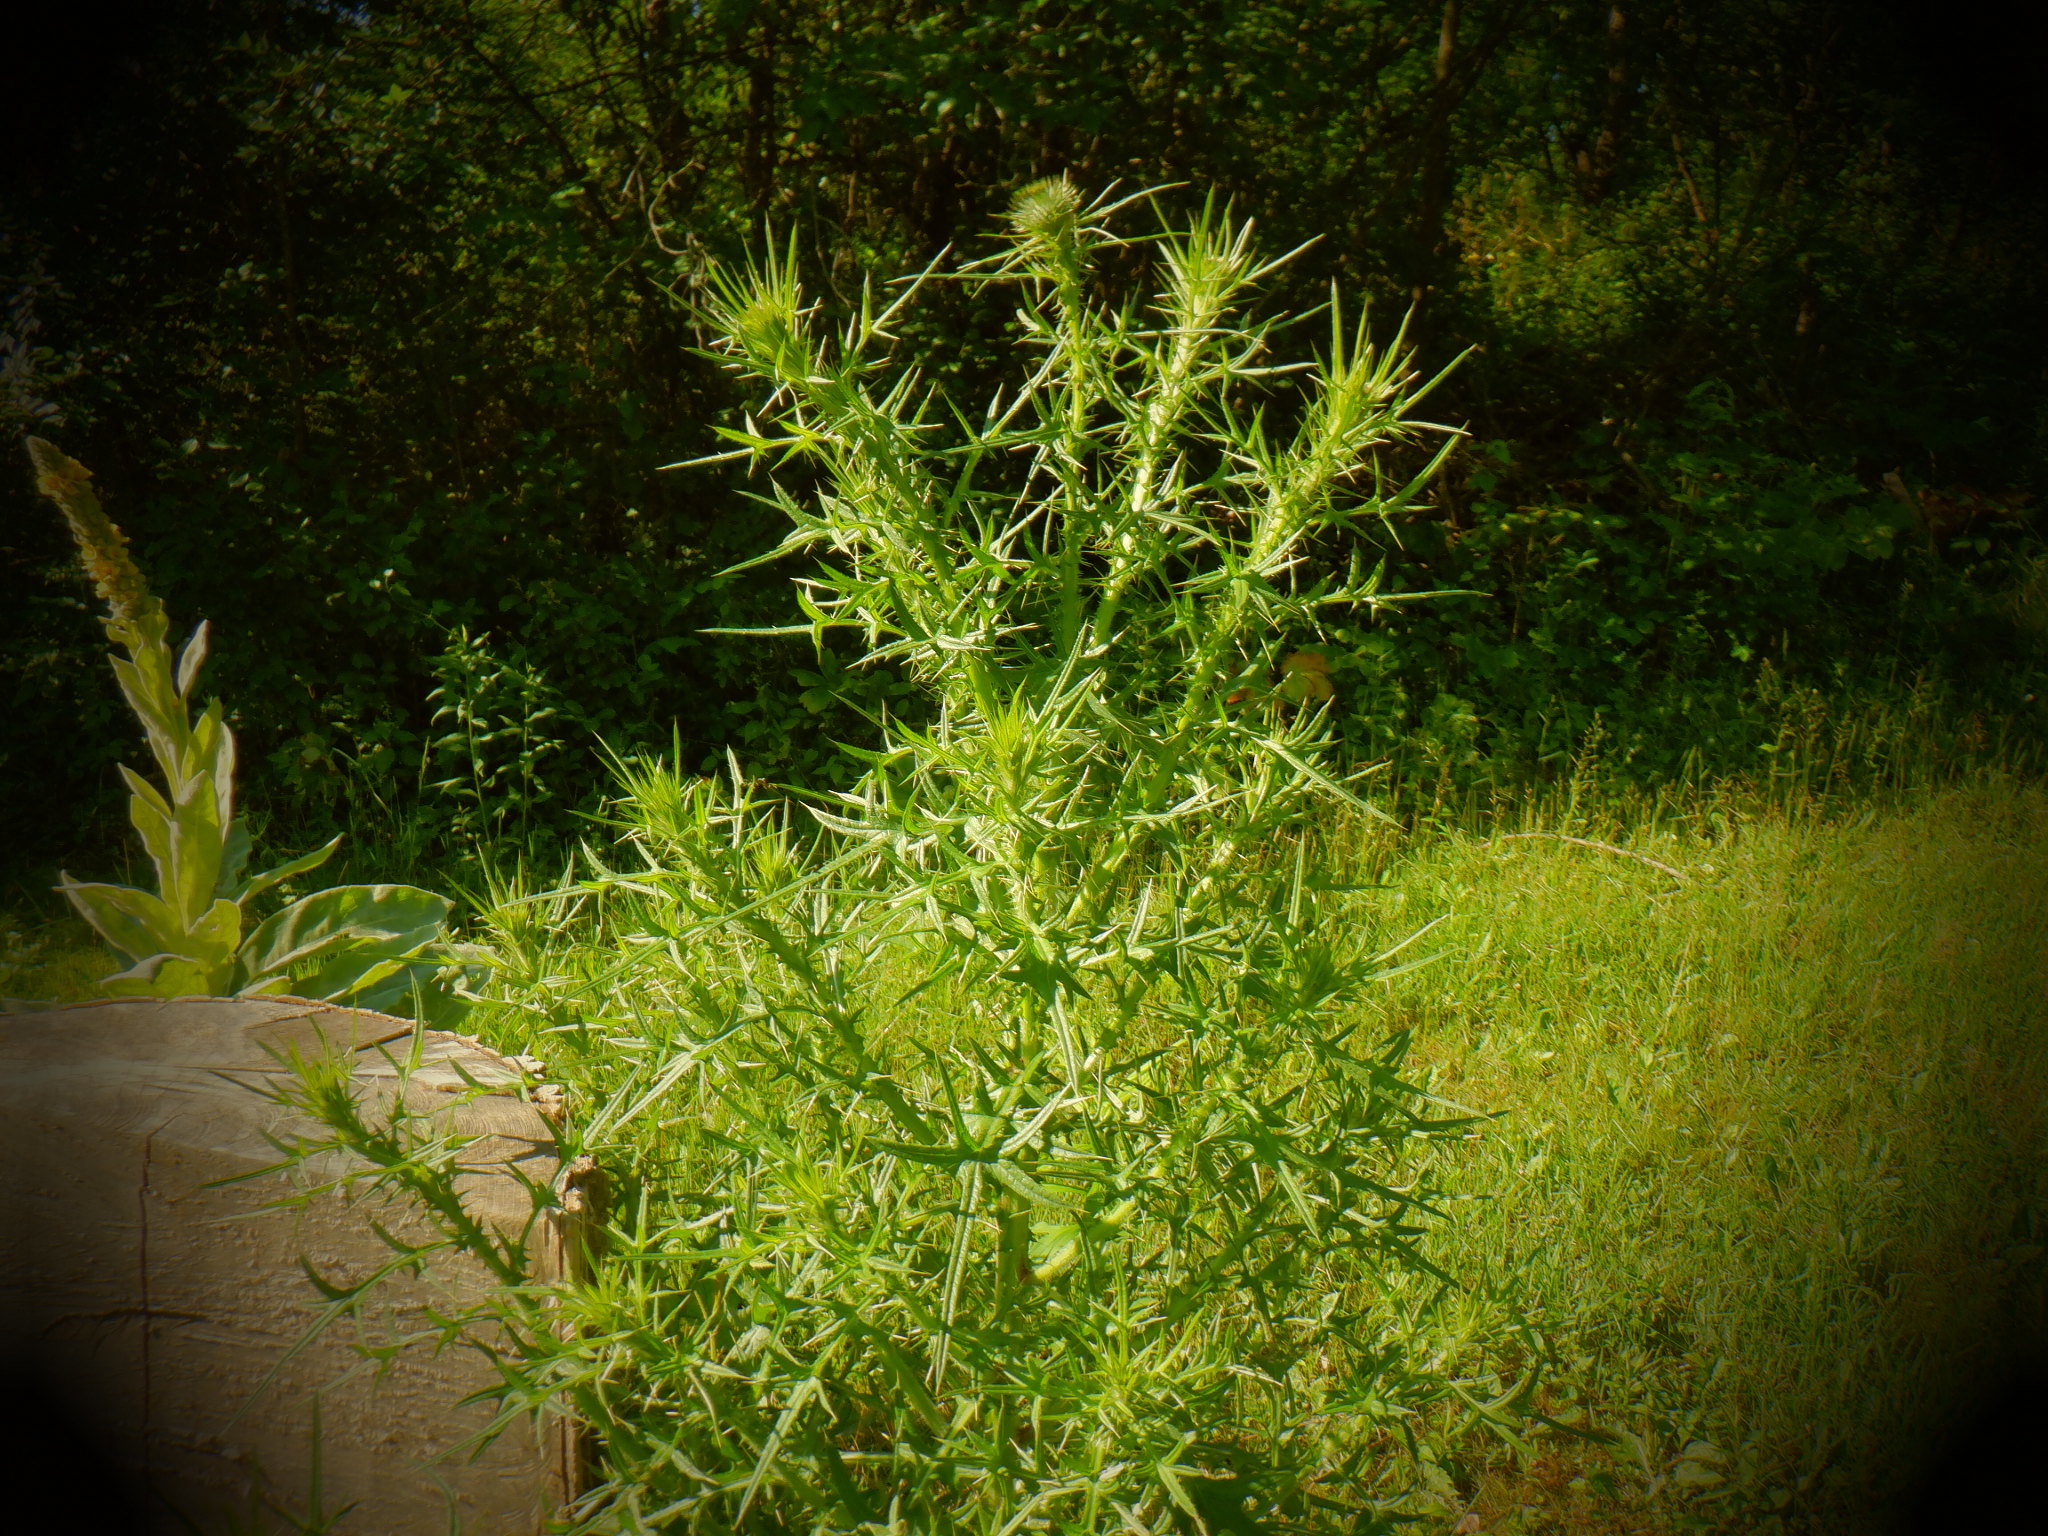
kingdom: Plantae
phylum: Tracheophyta
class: Magnoliopsida
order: Asterales
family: Asteraceae
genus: Cirsium
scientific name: Cirsium vulgare
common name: Bull thistle
